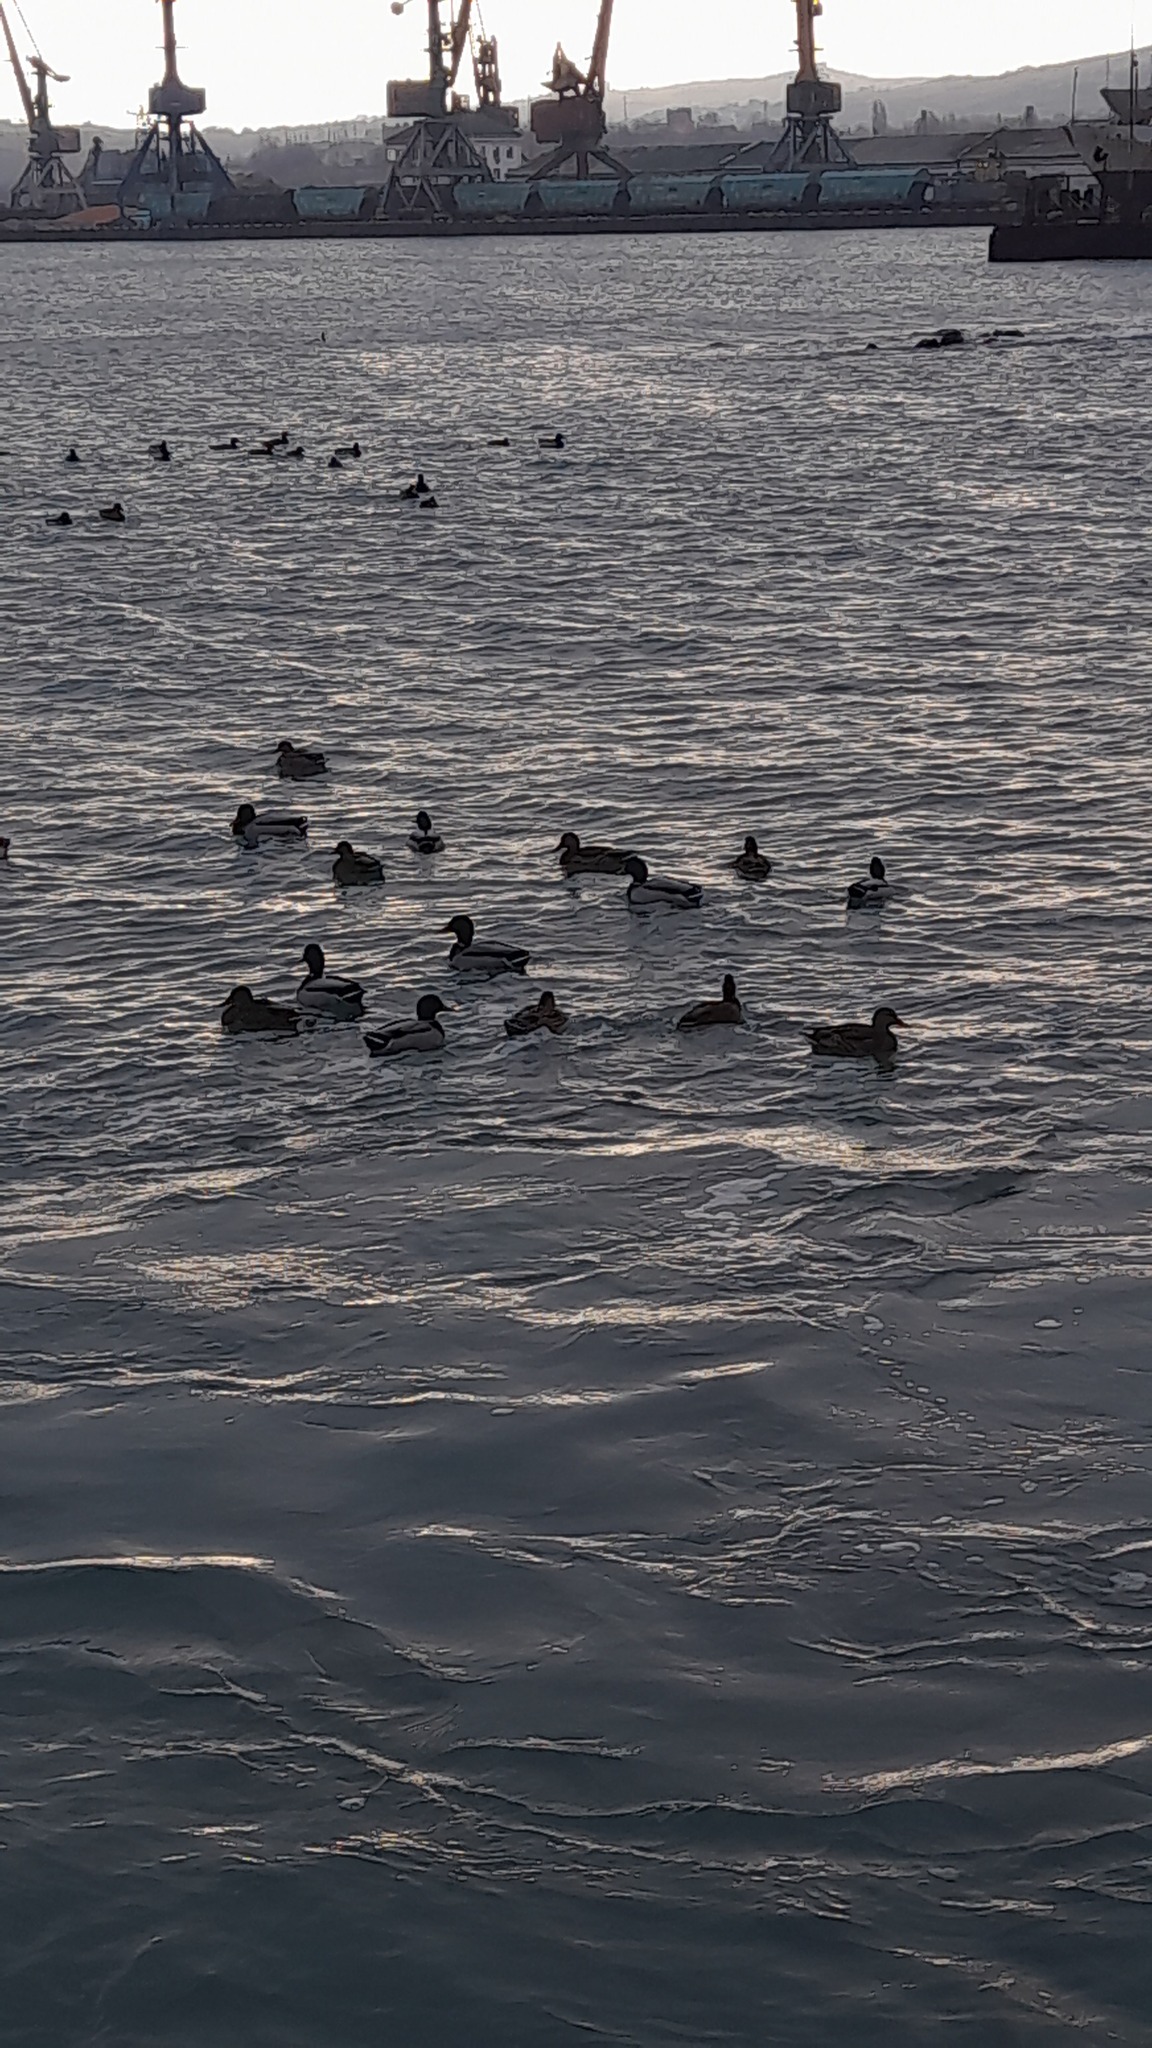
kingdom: Animalia
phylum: Chordata
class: Aves
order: Anseriformes
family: Anatidae
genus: Anas
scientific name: Anas platyrhynchos
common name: Mallard
